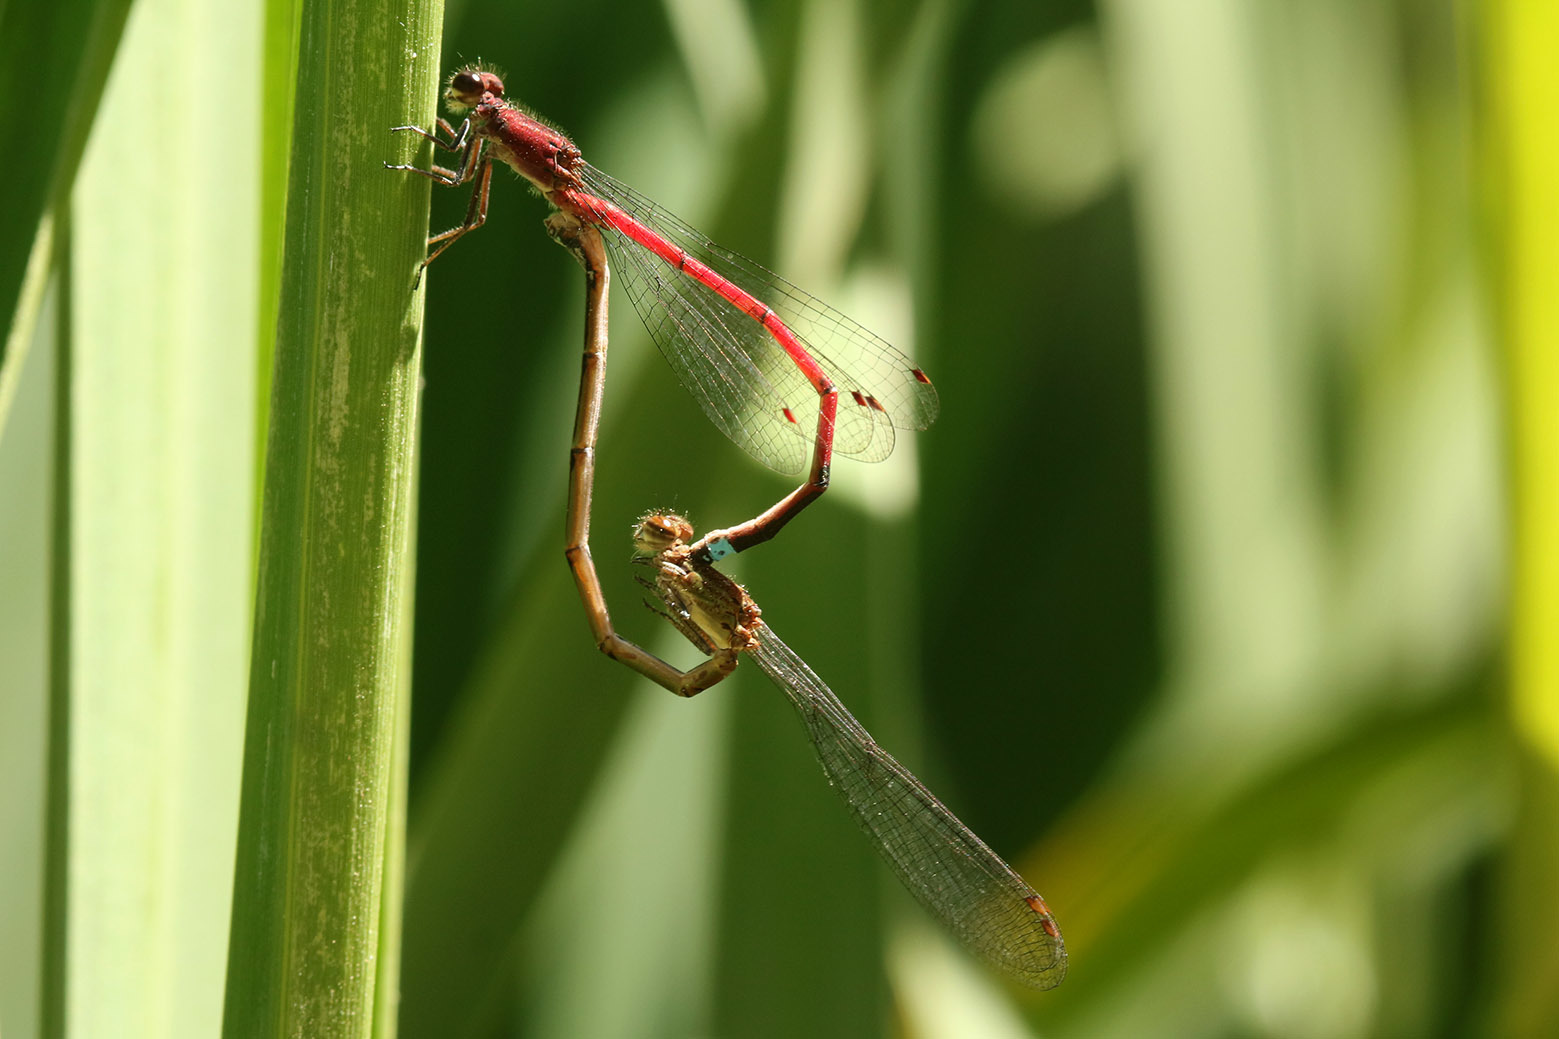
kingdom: Animalia
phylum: Arthropoda
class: Insecta
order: Odonata
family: Coenagrionidae
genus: Oxyagrion
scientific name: Oxyagrion terminale
